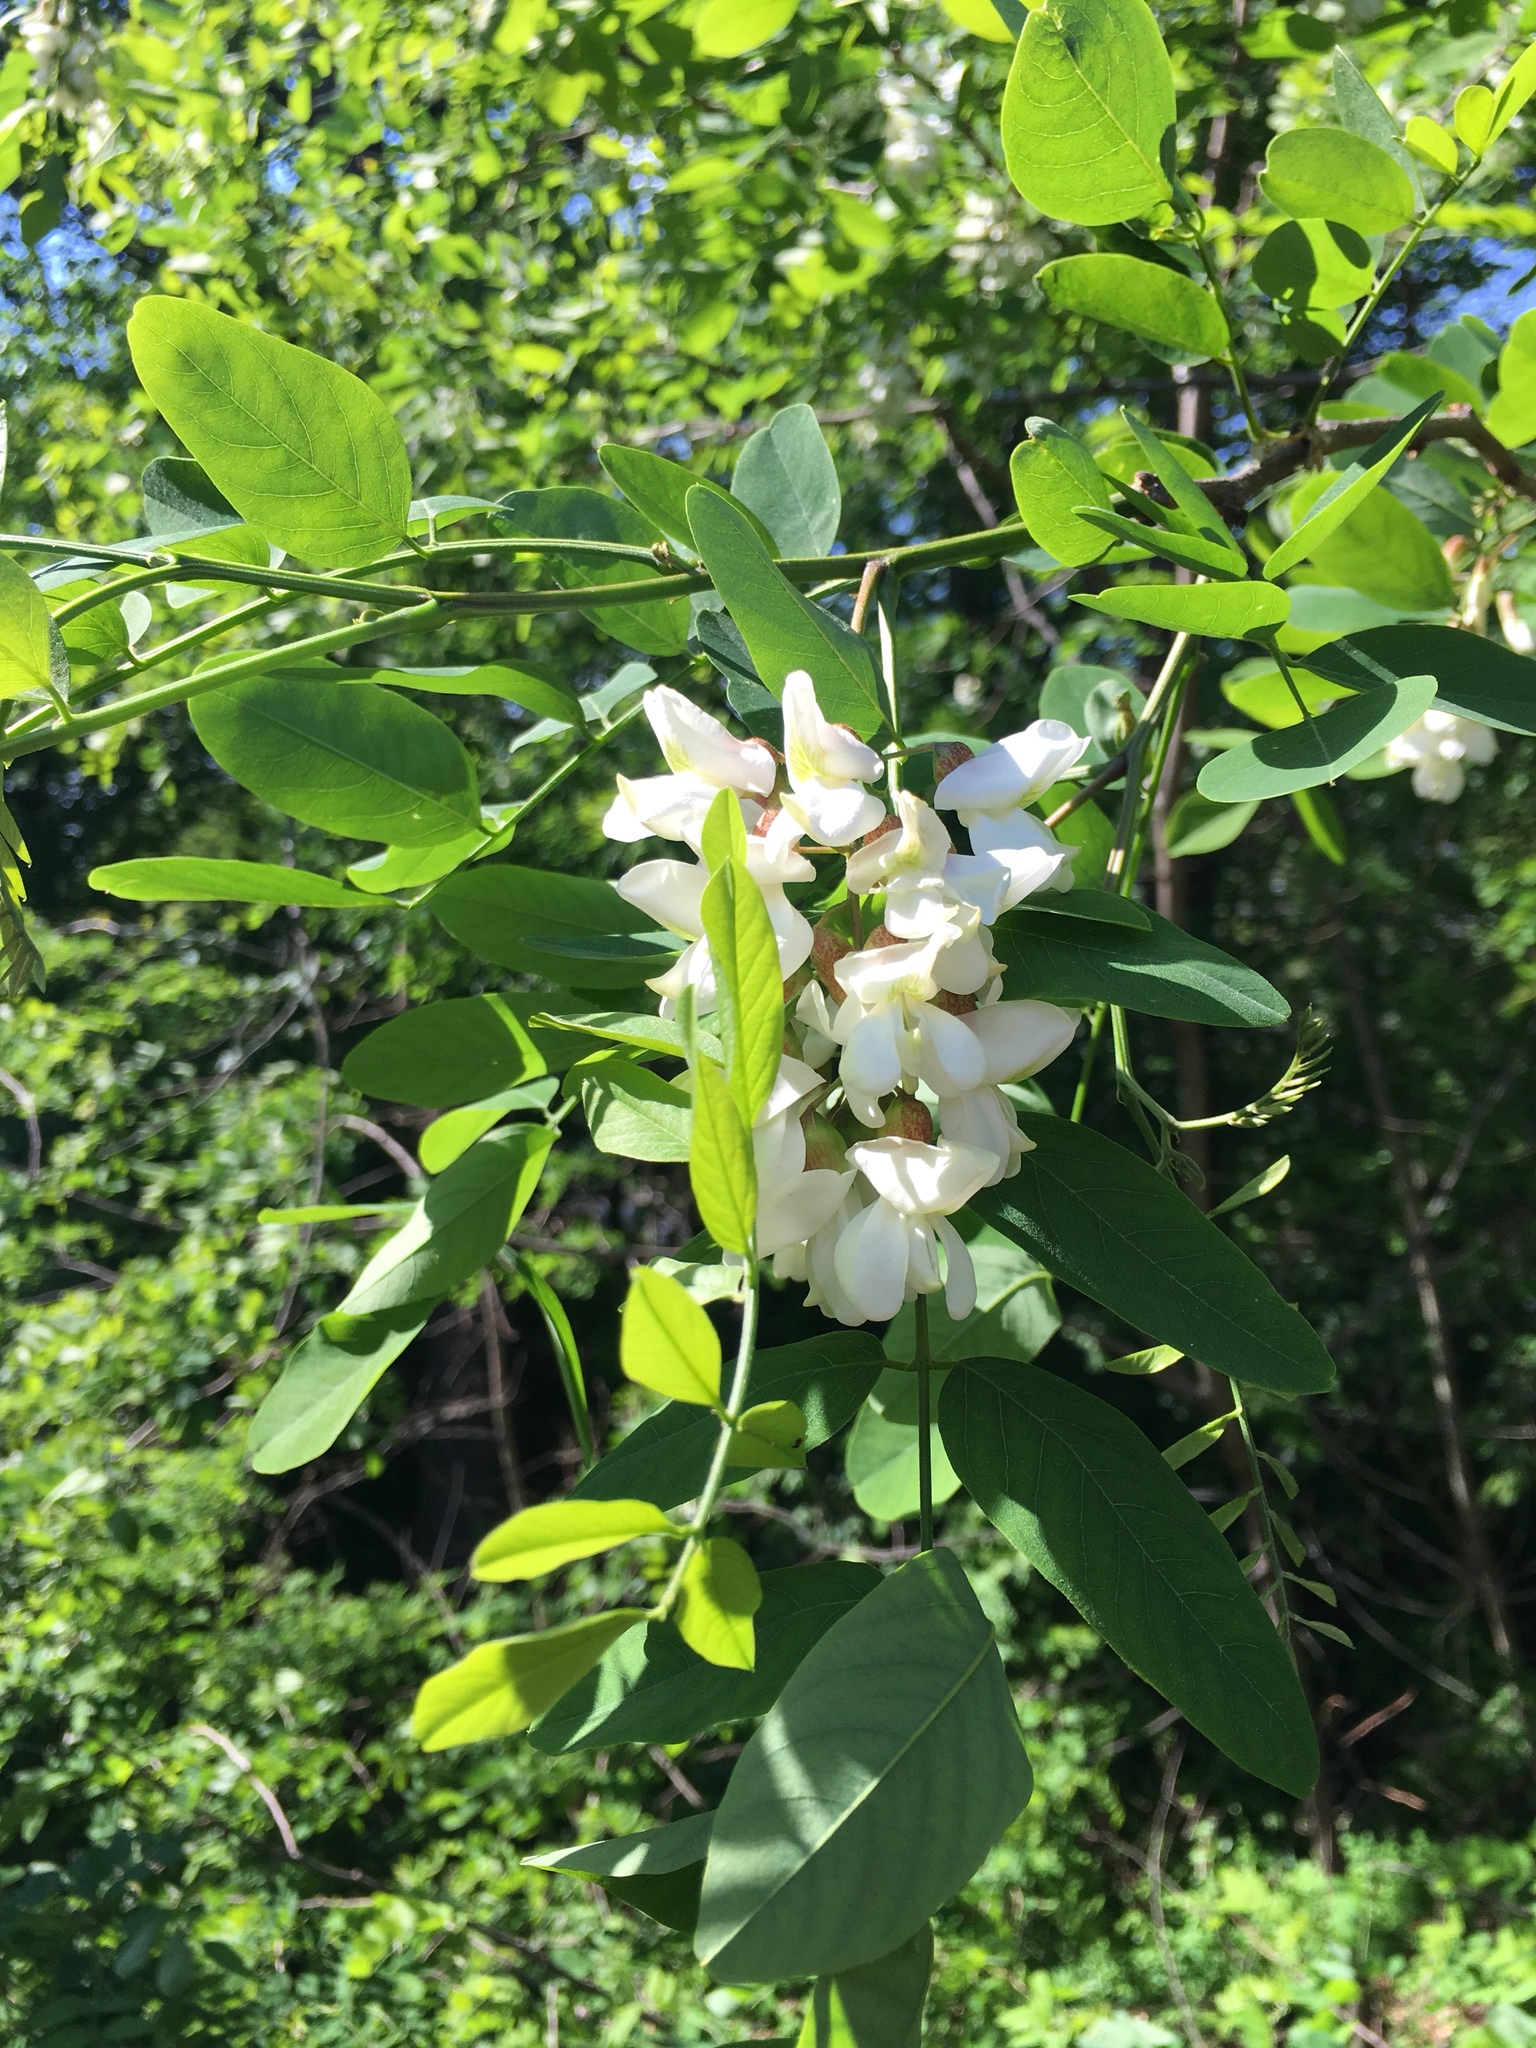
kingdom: Plantae
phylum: Tracheophyta
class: Magnoliopsida
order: Fabales
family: Fabaceae
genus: Robinia
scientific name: Robinia pseudoacacia
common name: Black locust
